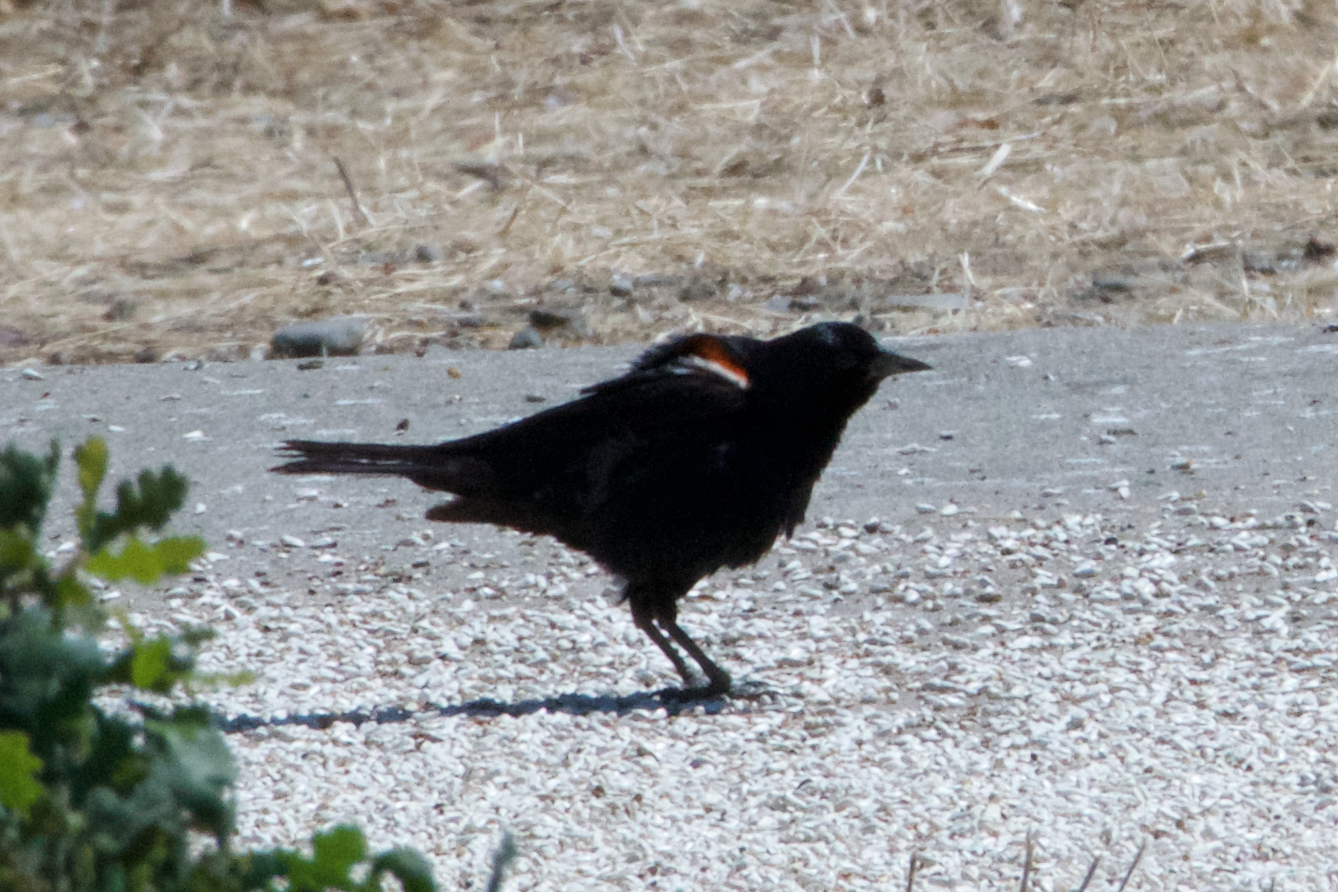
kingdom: Animalia
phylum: Chordata
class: Aves
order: Passeriformes
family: Icteridae
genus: Agelaius
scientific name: Agelaius tricolor
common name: Tricolored blackbird
